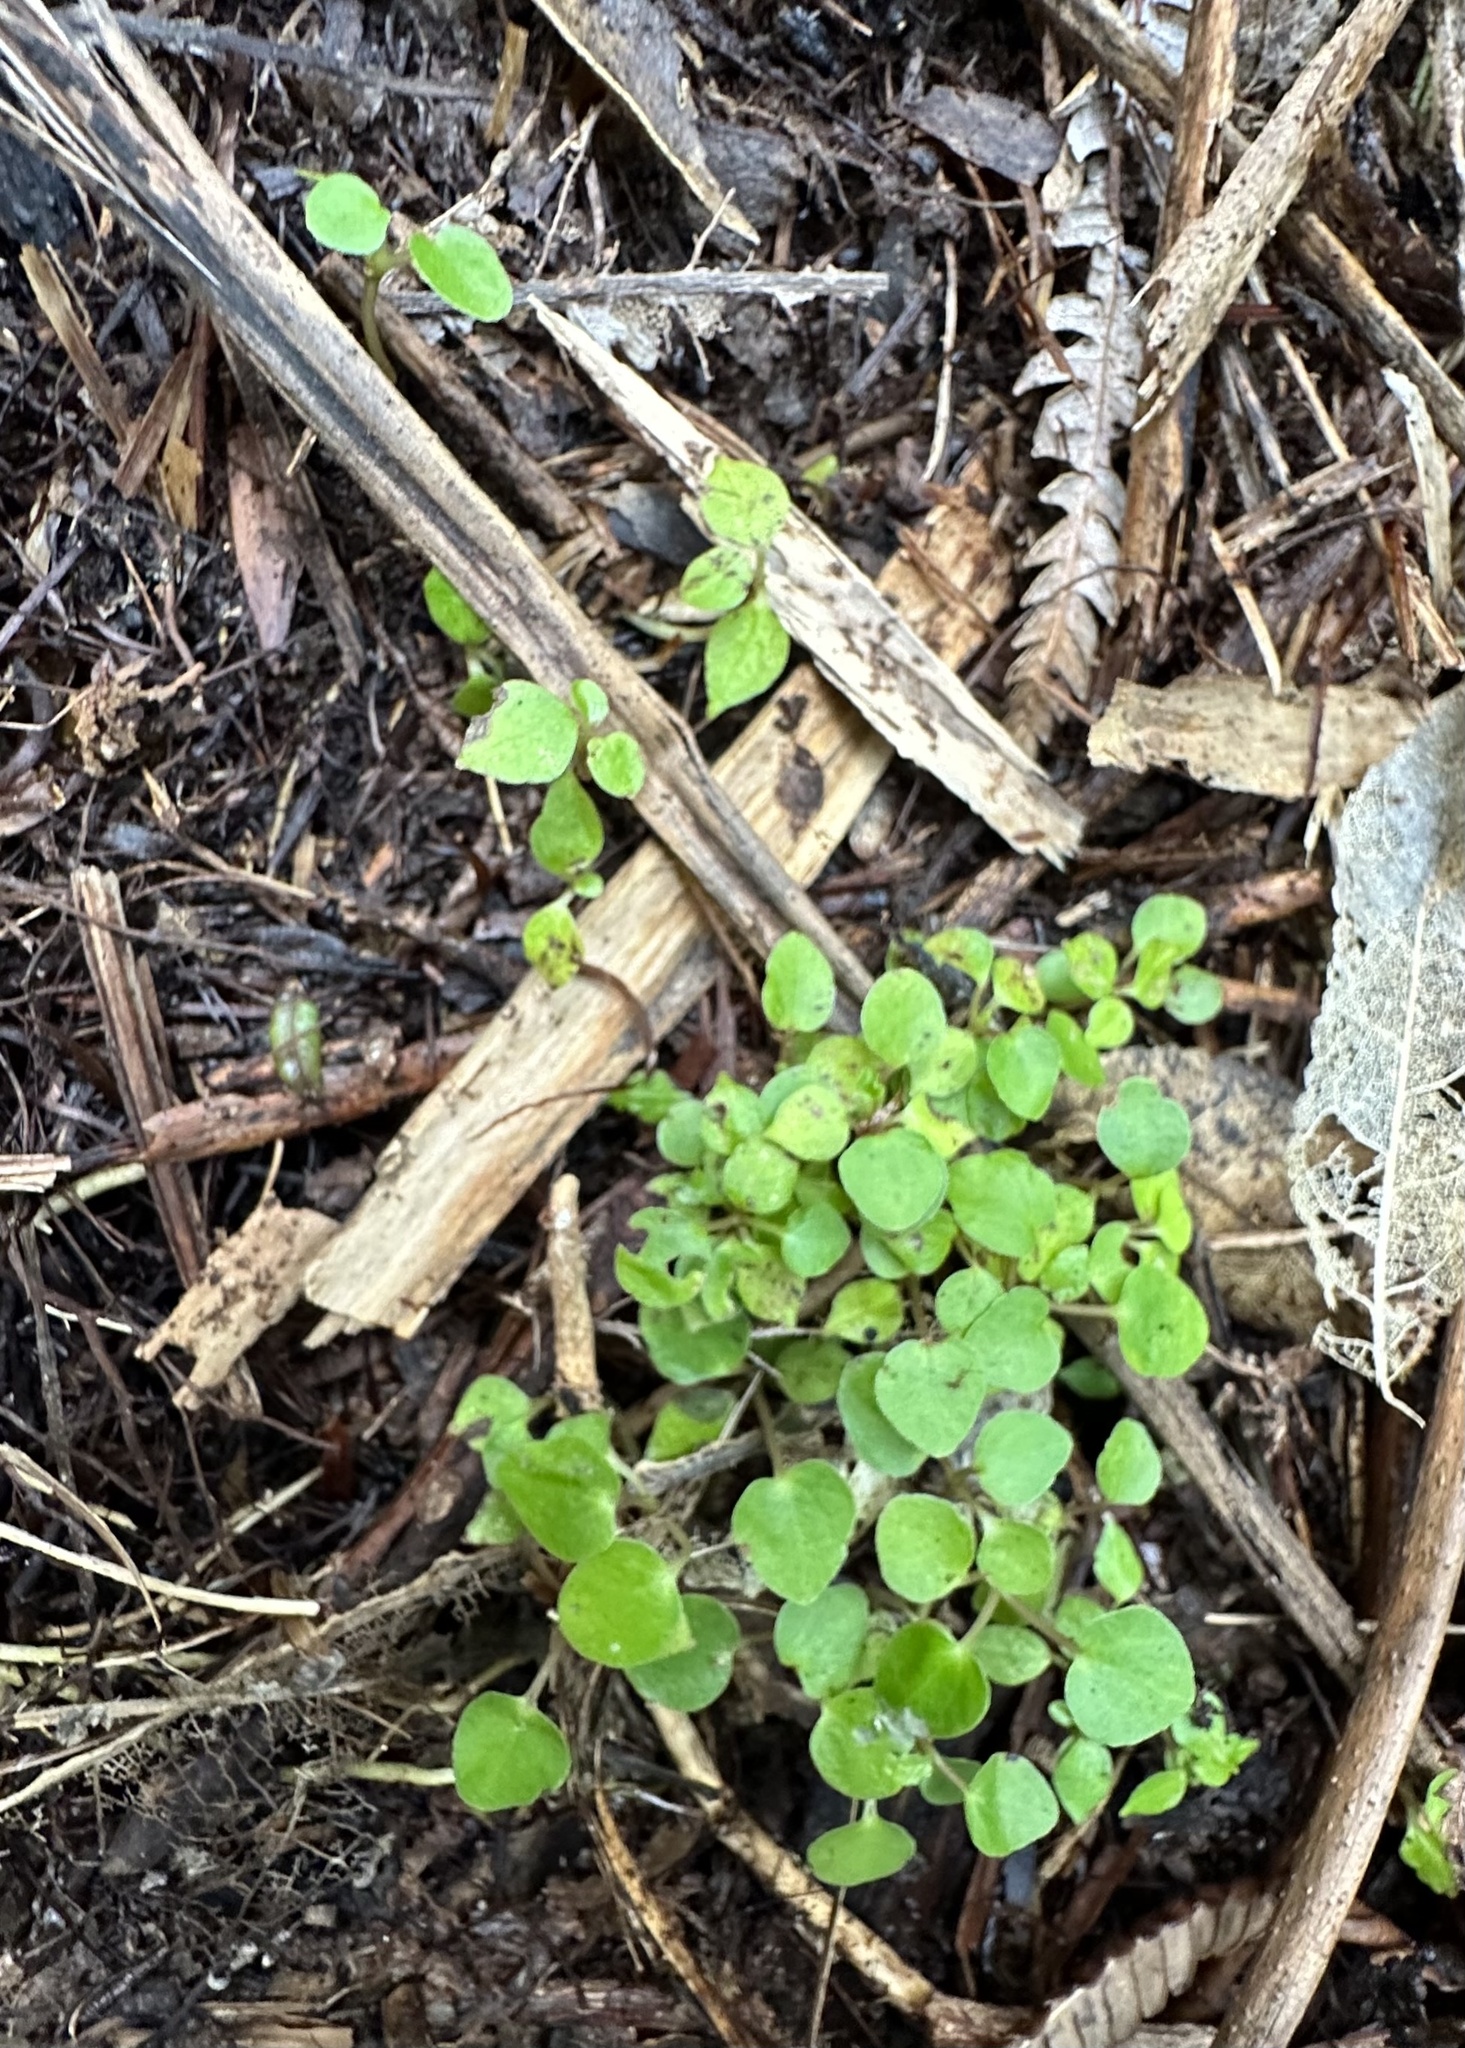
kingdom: Plantae
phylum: Tracheophyta
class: Magnoliopsida
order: Piperales
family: Piperaceae
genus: Macropiper
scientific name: Macropiper excelsum
